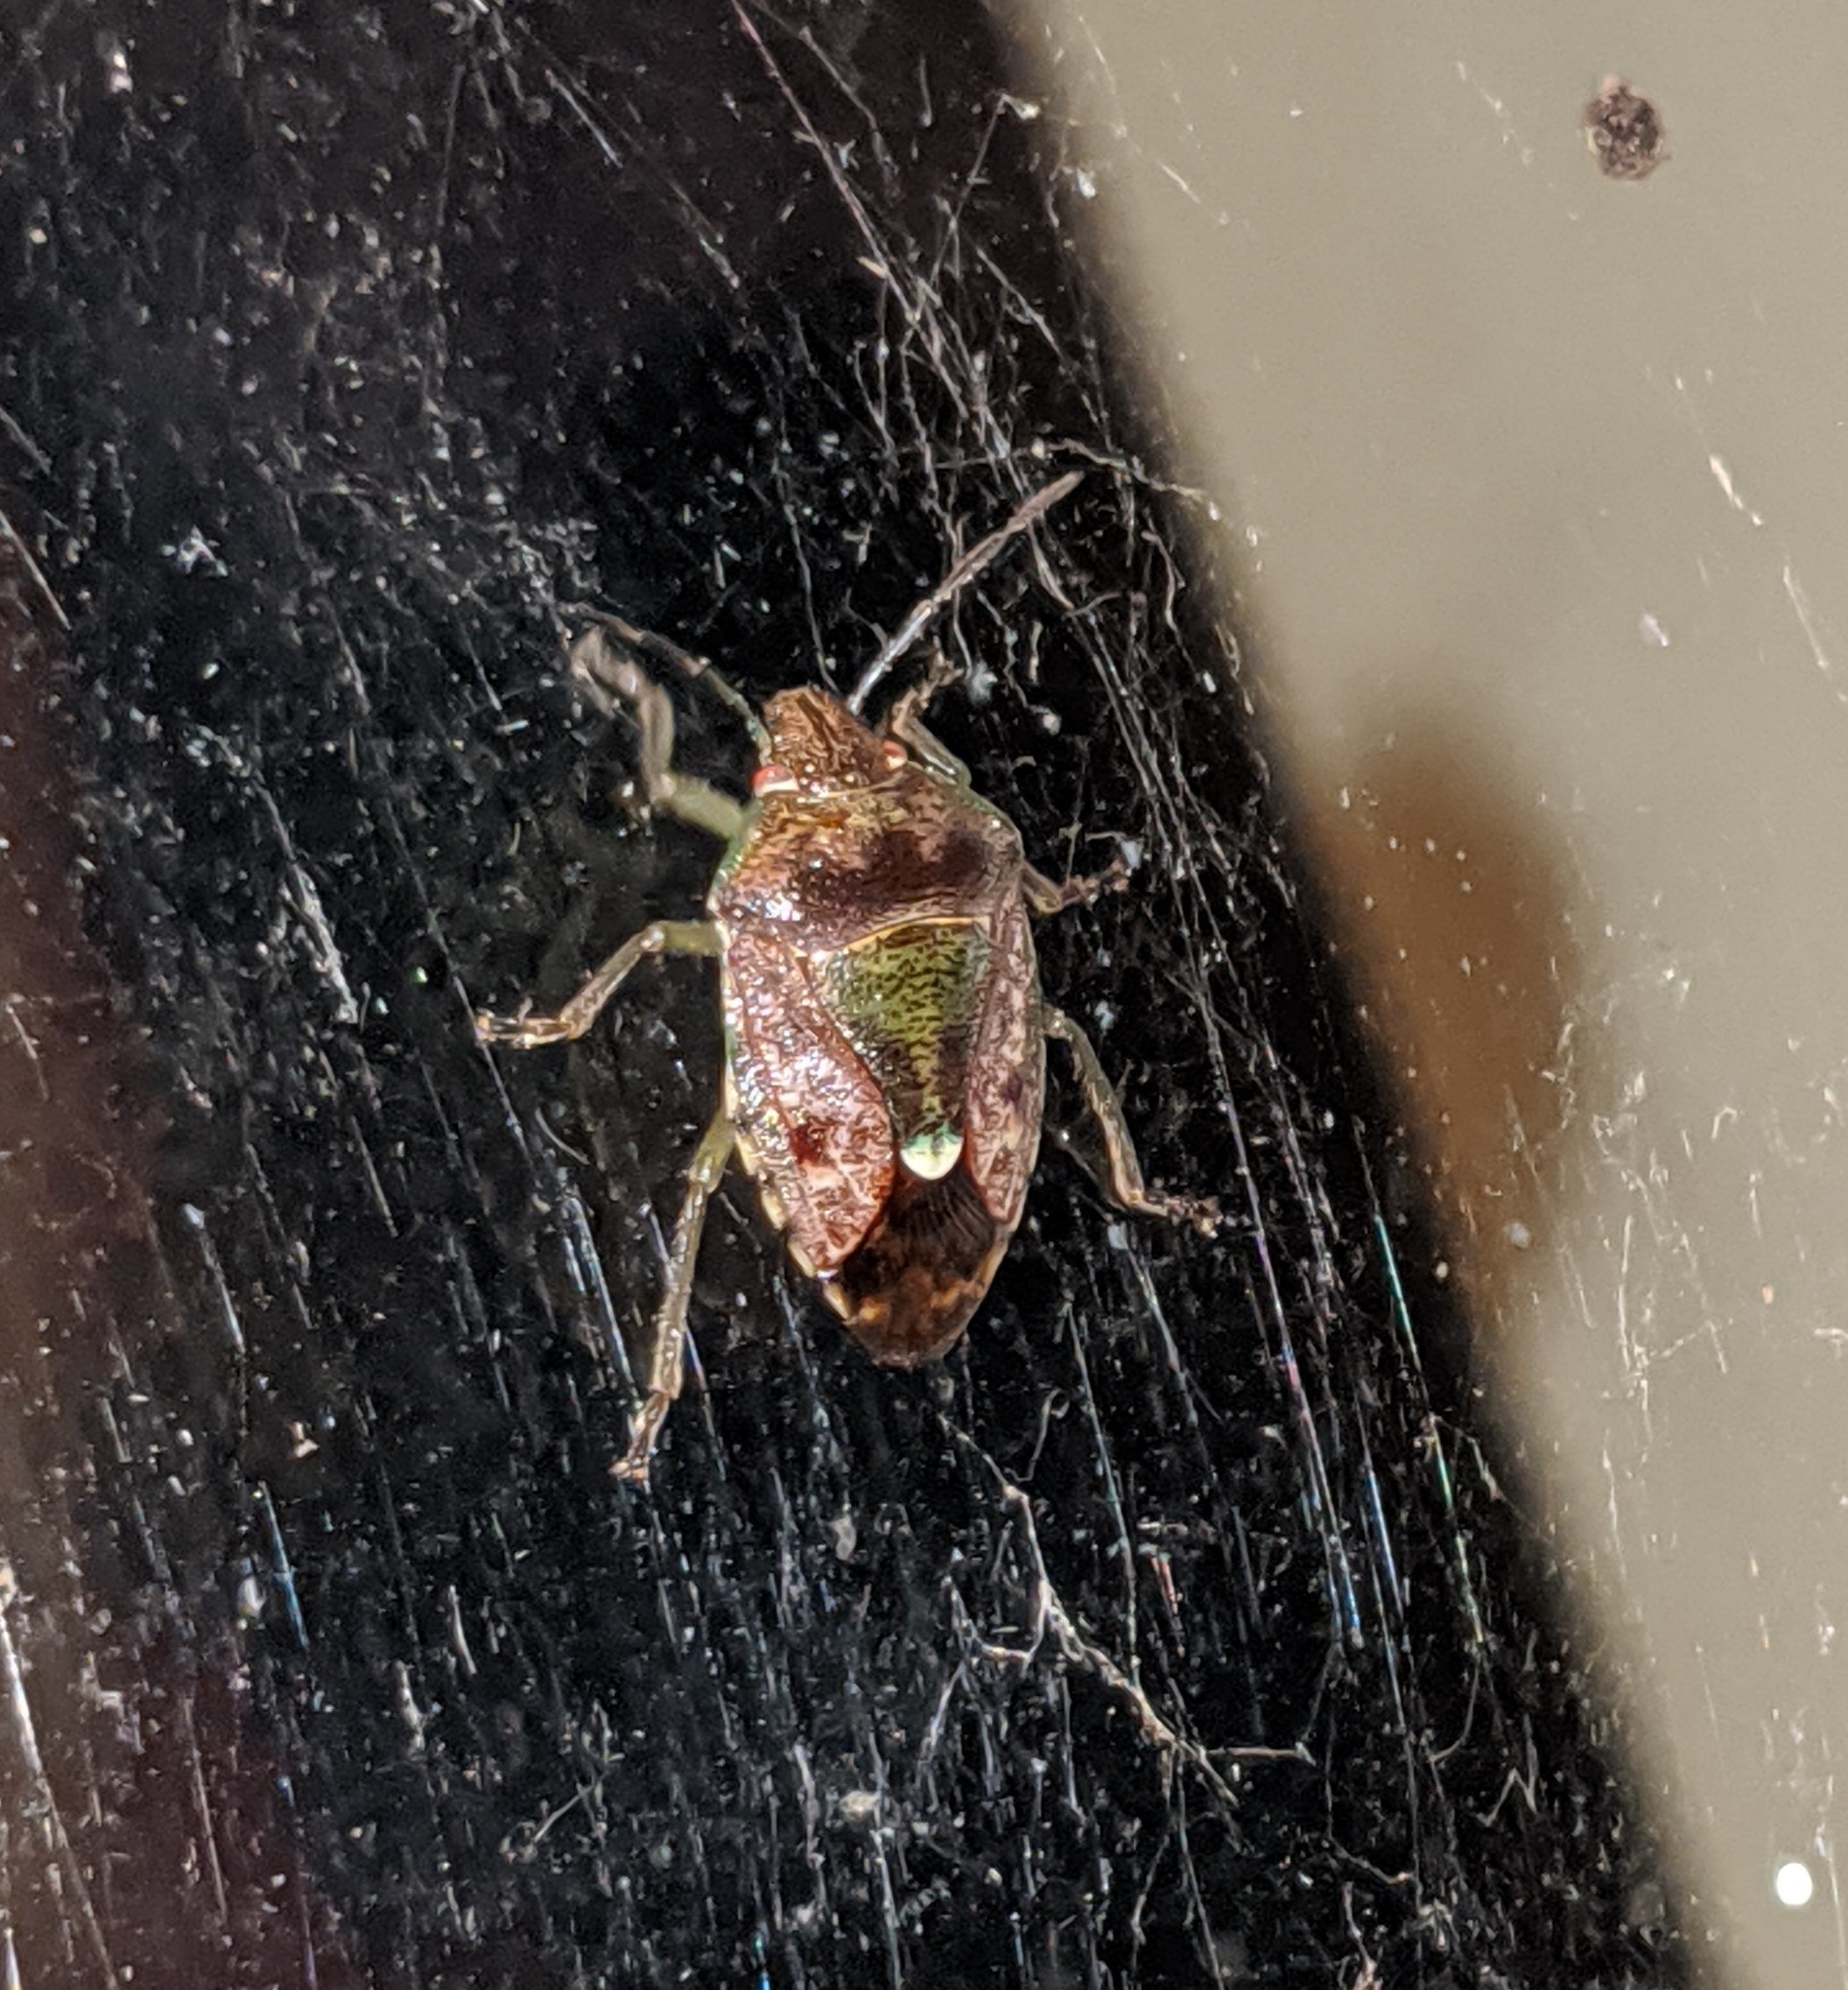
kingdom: Animalia
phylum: Arthropoda
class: Insecta
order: Hemiptera
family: Pentatomidae
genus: Banasa
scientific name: Banasa sordida
